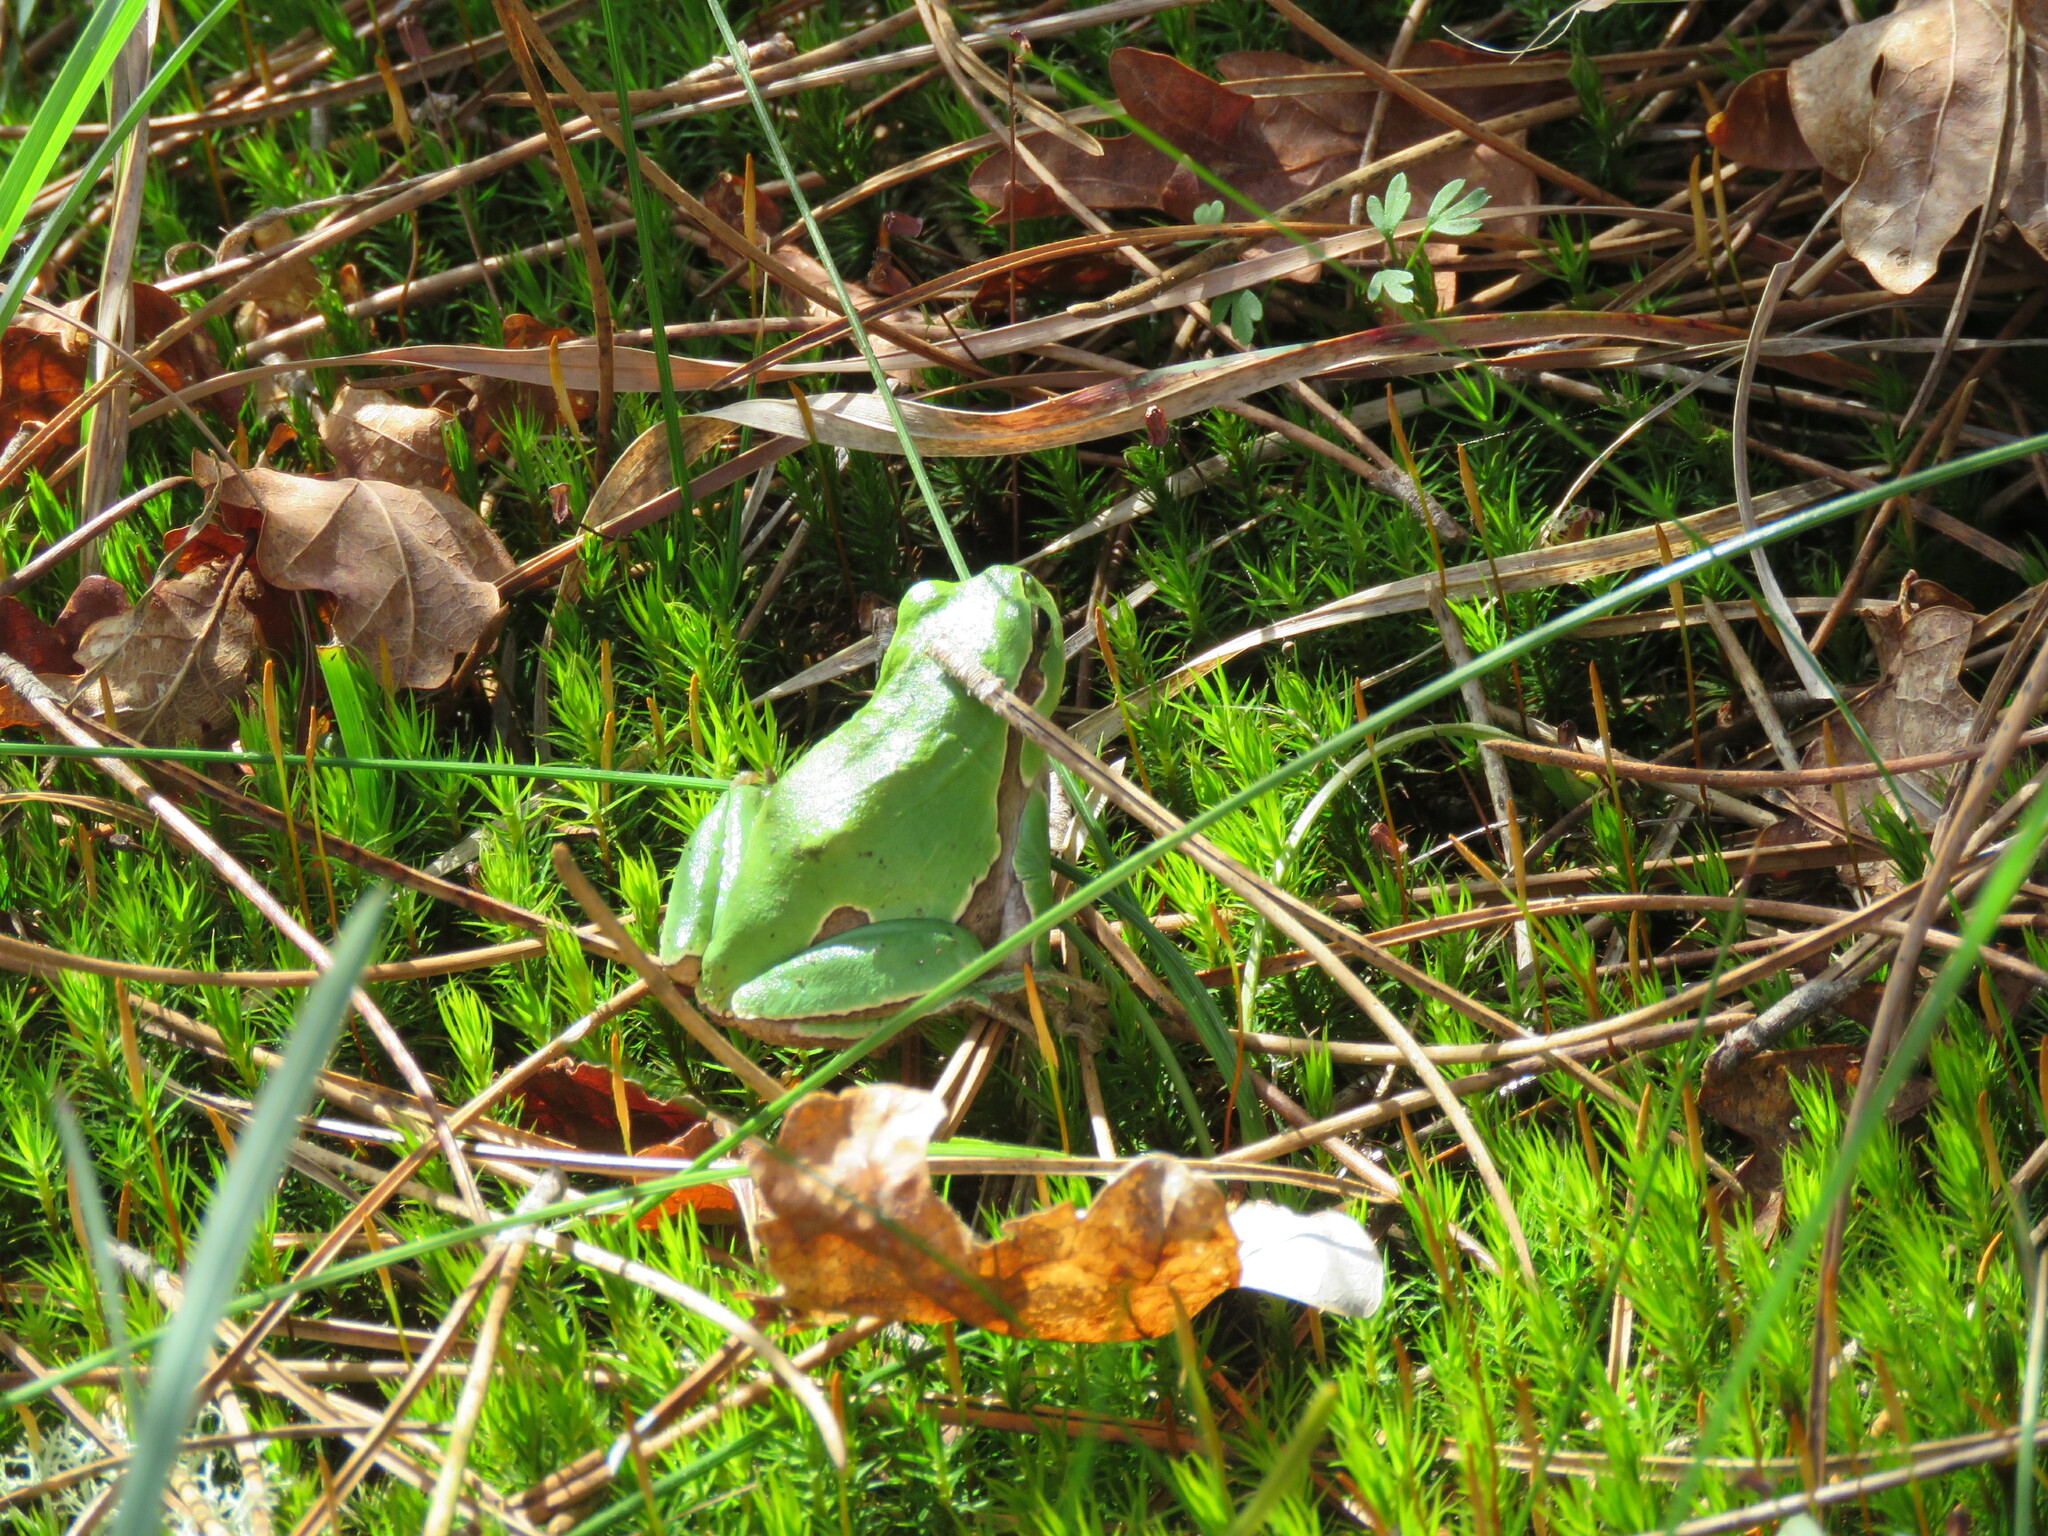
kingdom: Animalia
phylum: Chordata
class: Amphibia
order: Anura
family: Hylidae
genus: Hyla
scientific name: Hyla molleri
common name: Iberian tree frog
